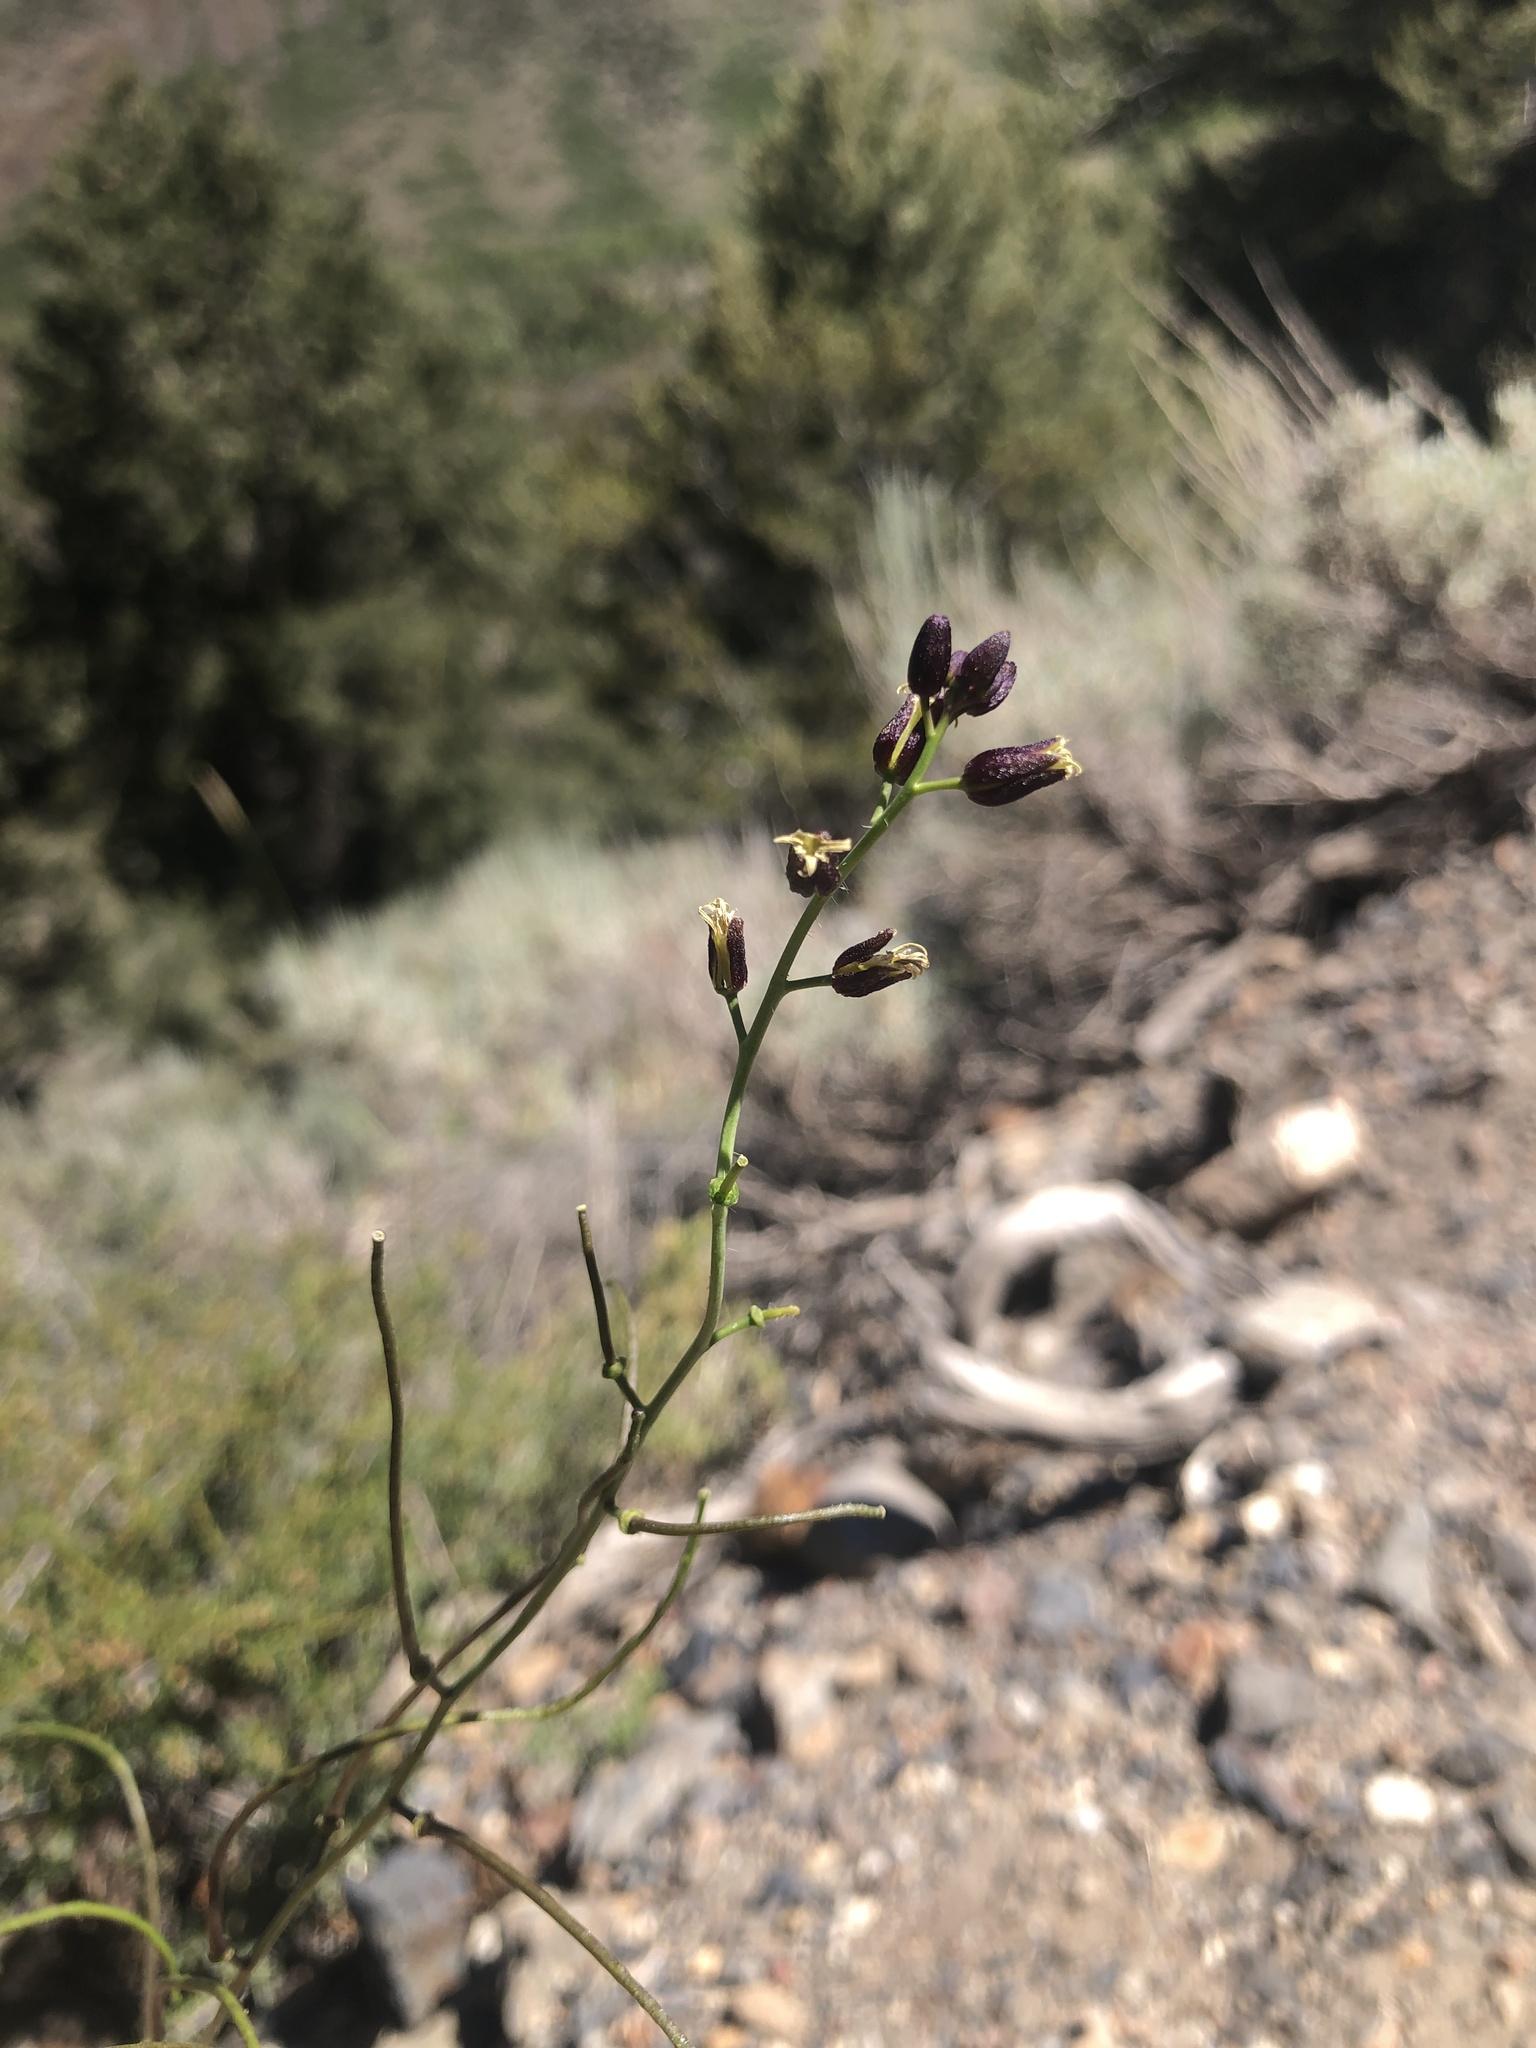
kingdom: Plantae
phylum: Tracheophyta
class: Magnoliopsida
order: Brassicales
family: Brassicaceae
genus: Streptanthus
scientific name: Streptanthus pilosus
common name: Chocolate drops
